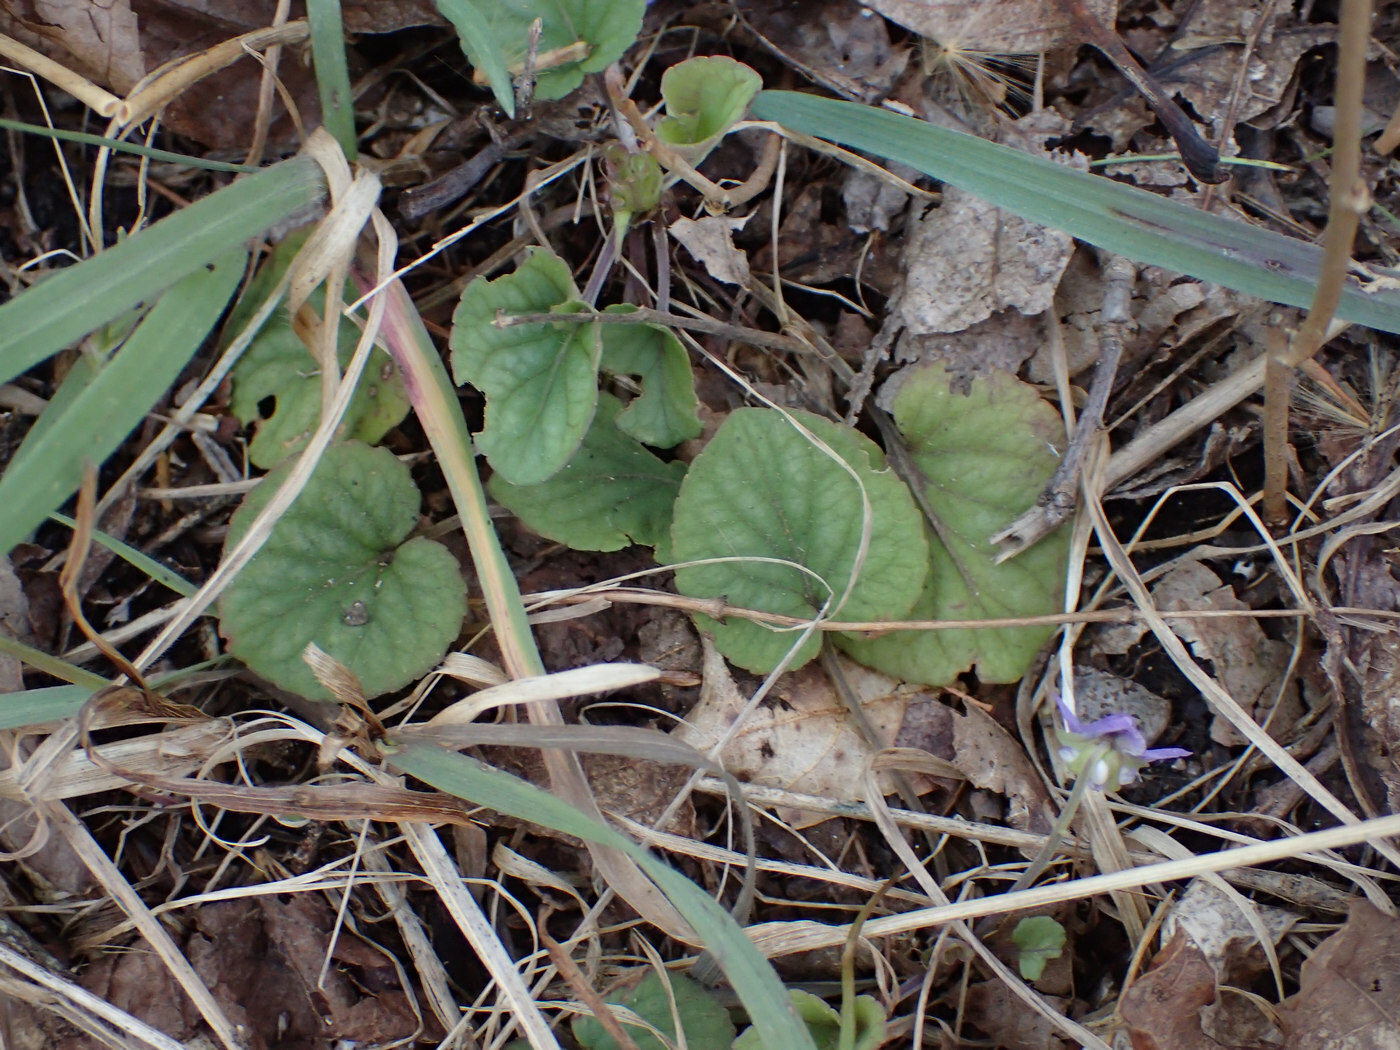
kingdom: Plantae
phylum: Tracheophyta
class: Magnoliopsida
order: Malpighiales
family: Violaceae
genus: Viola
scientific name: Viola walteri
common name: Prostrate southern violet
